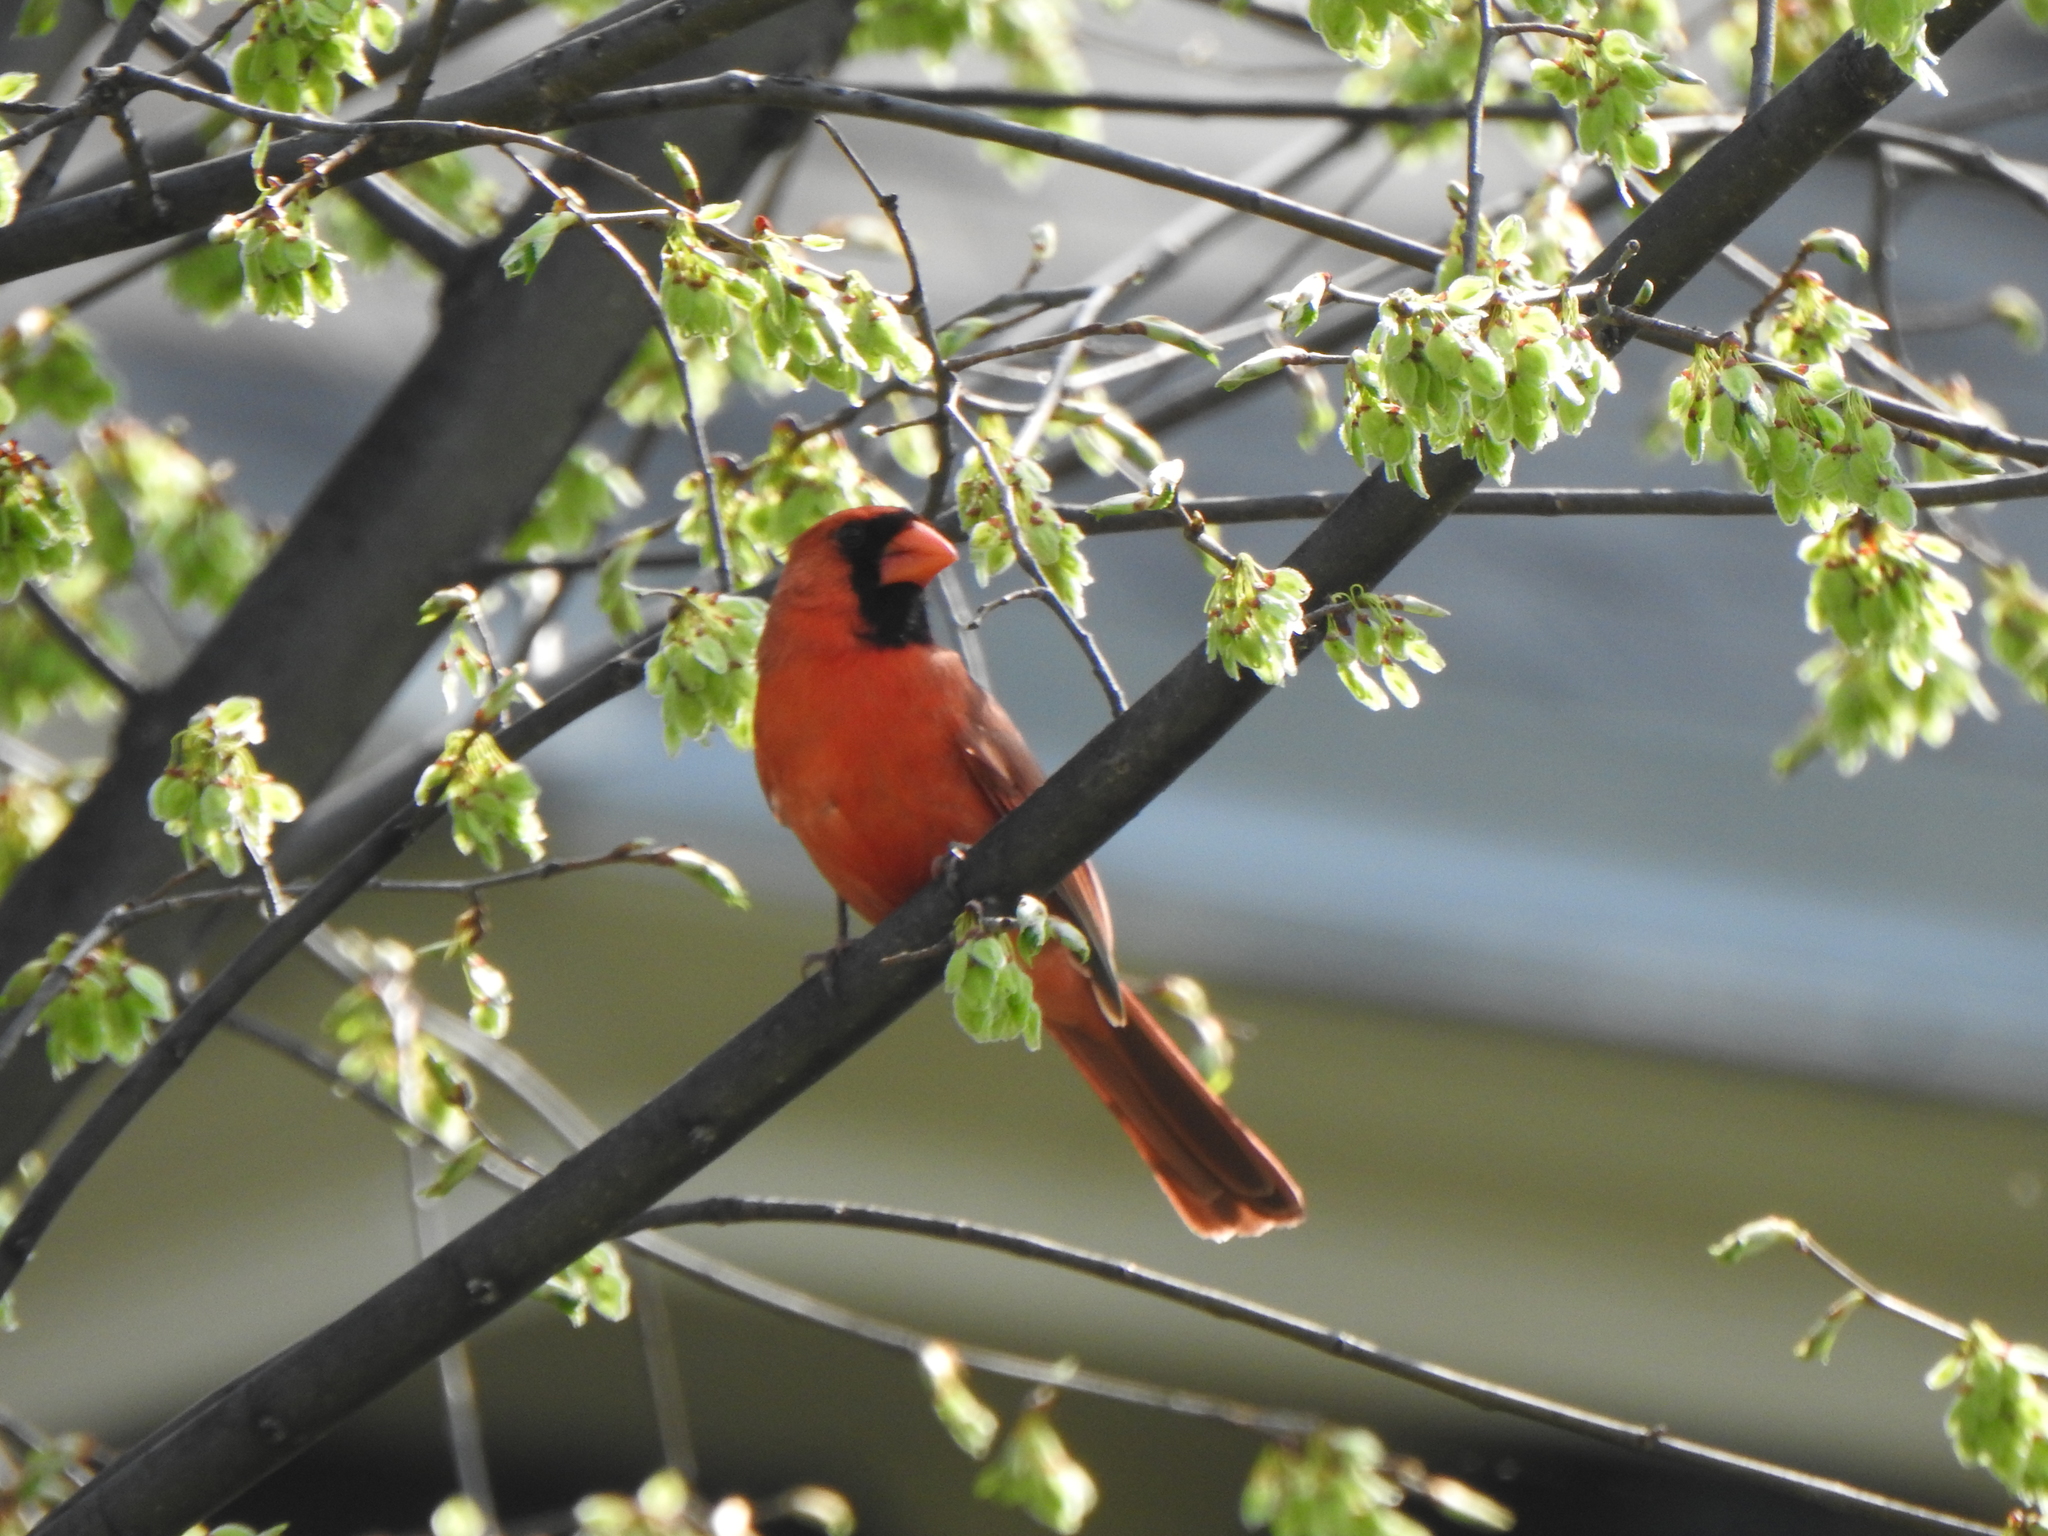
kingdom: Animalia
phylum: Chordata
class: Aves
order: Passeriformes
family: Cardinalidae
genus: Cardinalis
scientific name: Cardinalis cardinalis
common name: Northern cardinal
